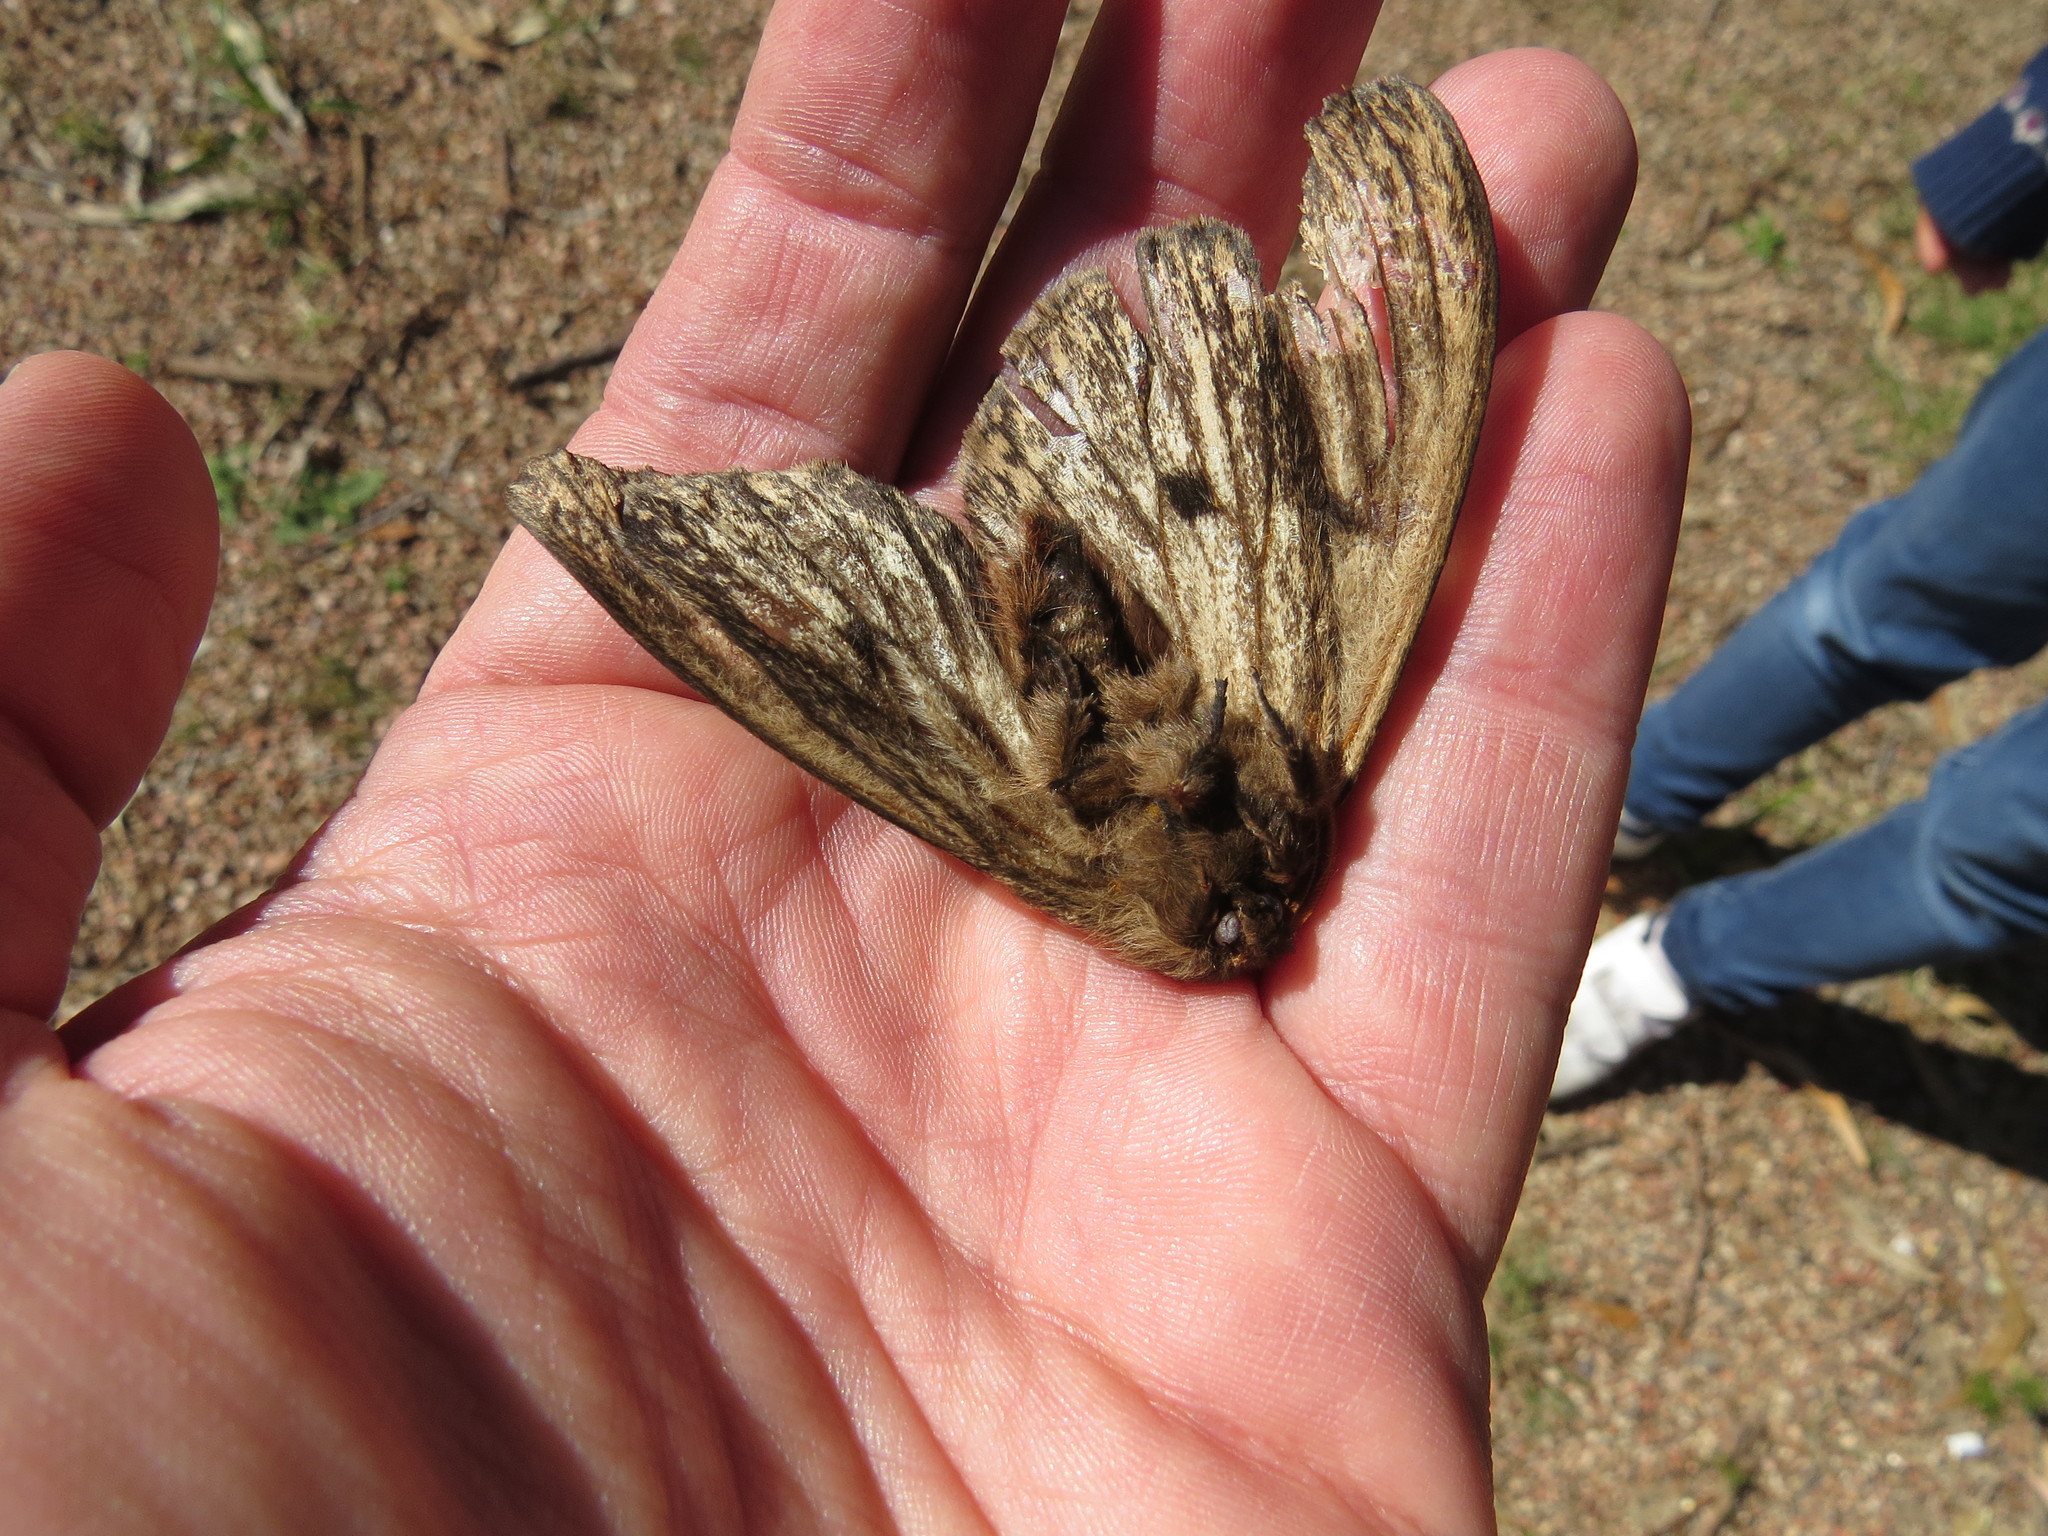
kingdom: Animalia
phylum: Arthropoda
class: Insecta
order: Lepidoptera
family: Saturniidae
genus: Eudyaria
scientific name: Eudyaria zeta
